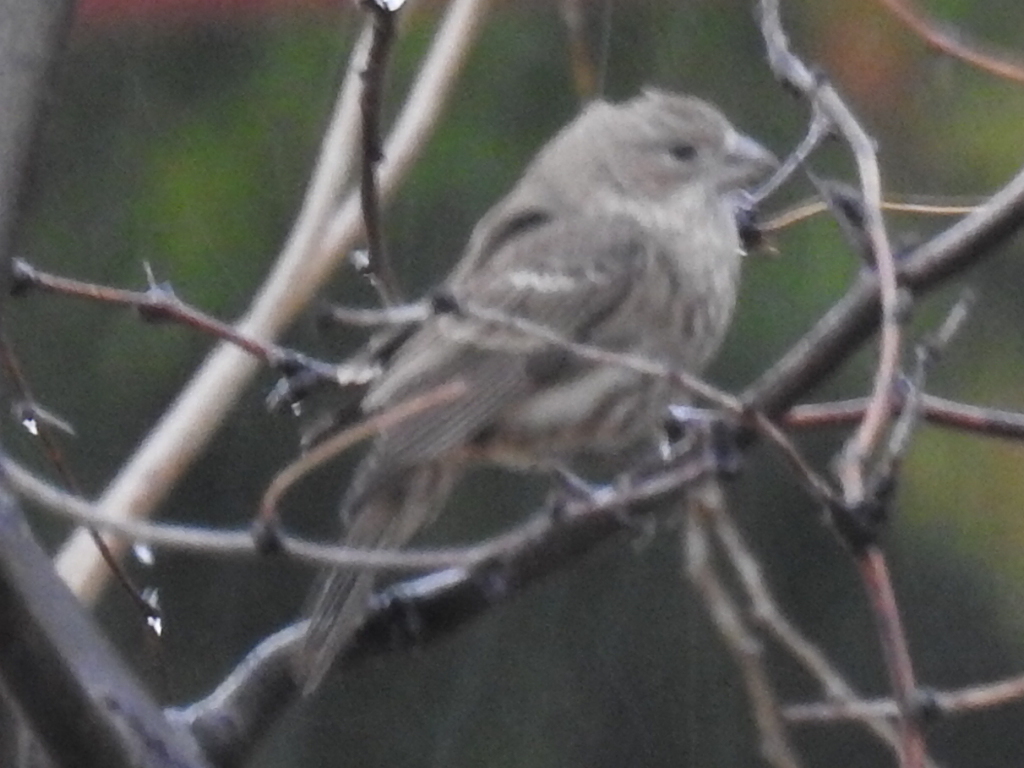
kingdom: Animalia
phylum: Chordata
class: Aves
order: Passeriformes
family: Fringillidae
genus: Haemorhous
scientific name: Haemorhous mexicanus
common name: House finch
